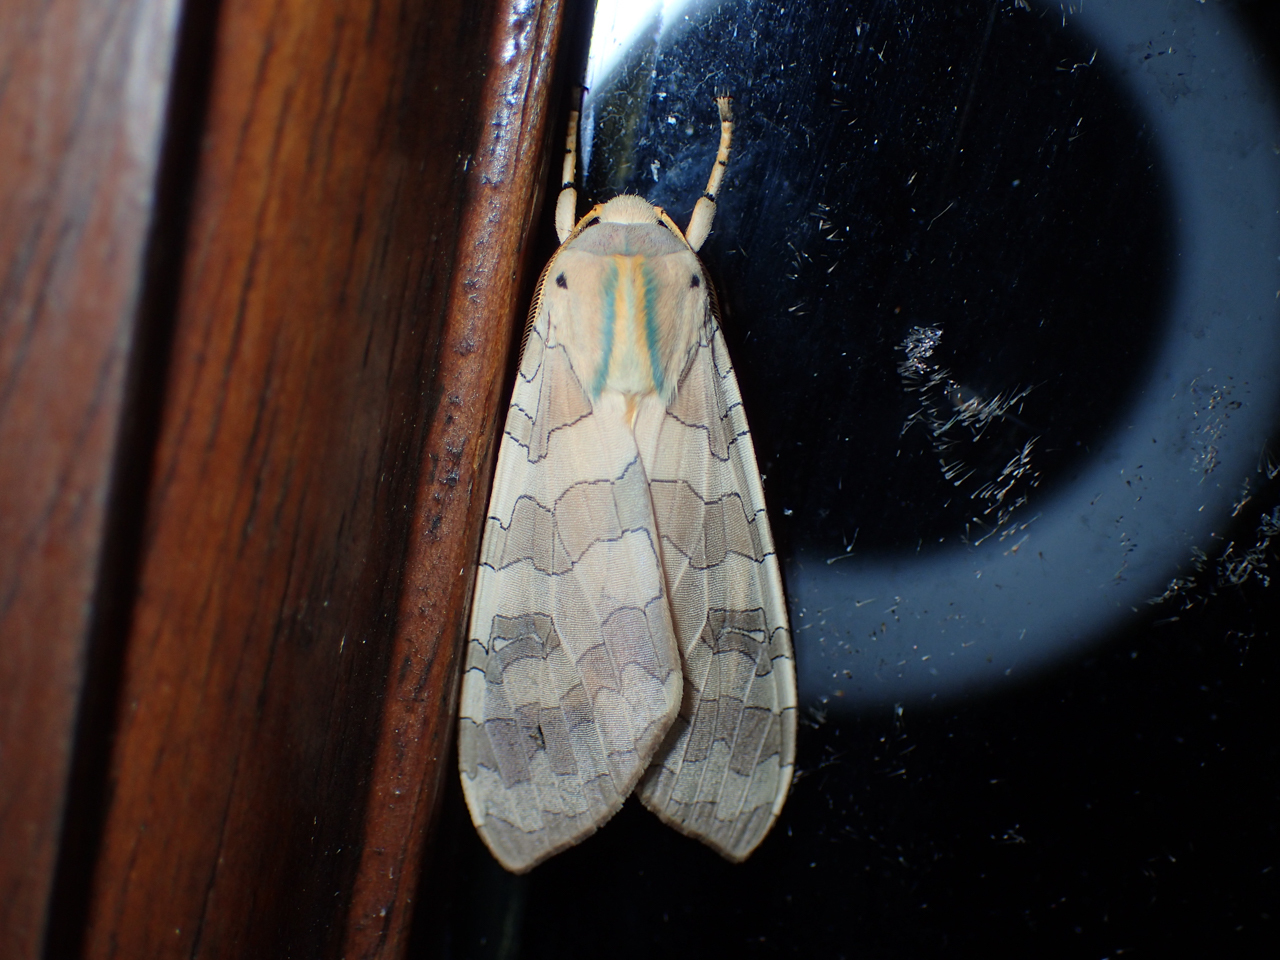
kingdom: Animalia
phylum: Arthropoda
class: Insecta
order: Lepidoptera
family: Erebidae
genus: Halysidota
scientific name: Halysidota
